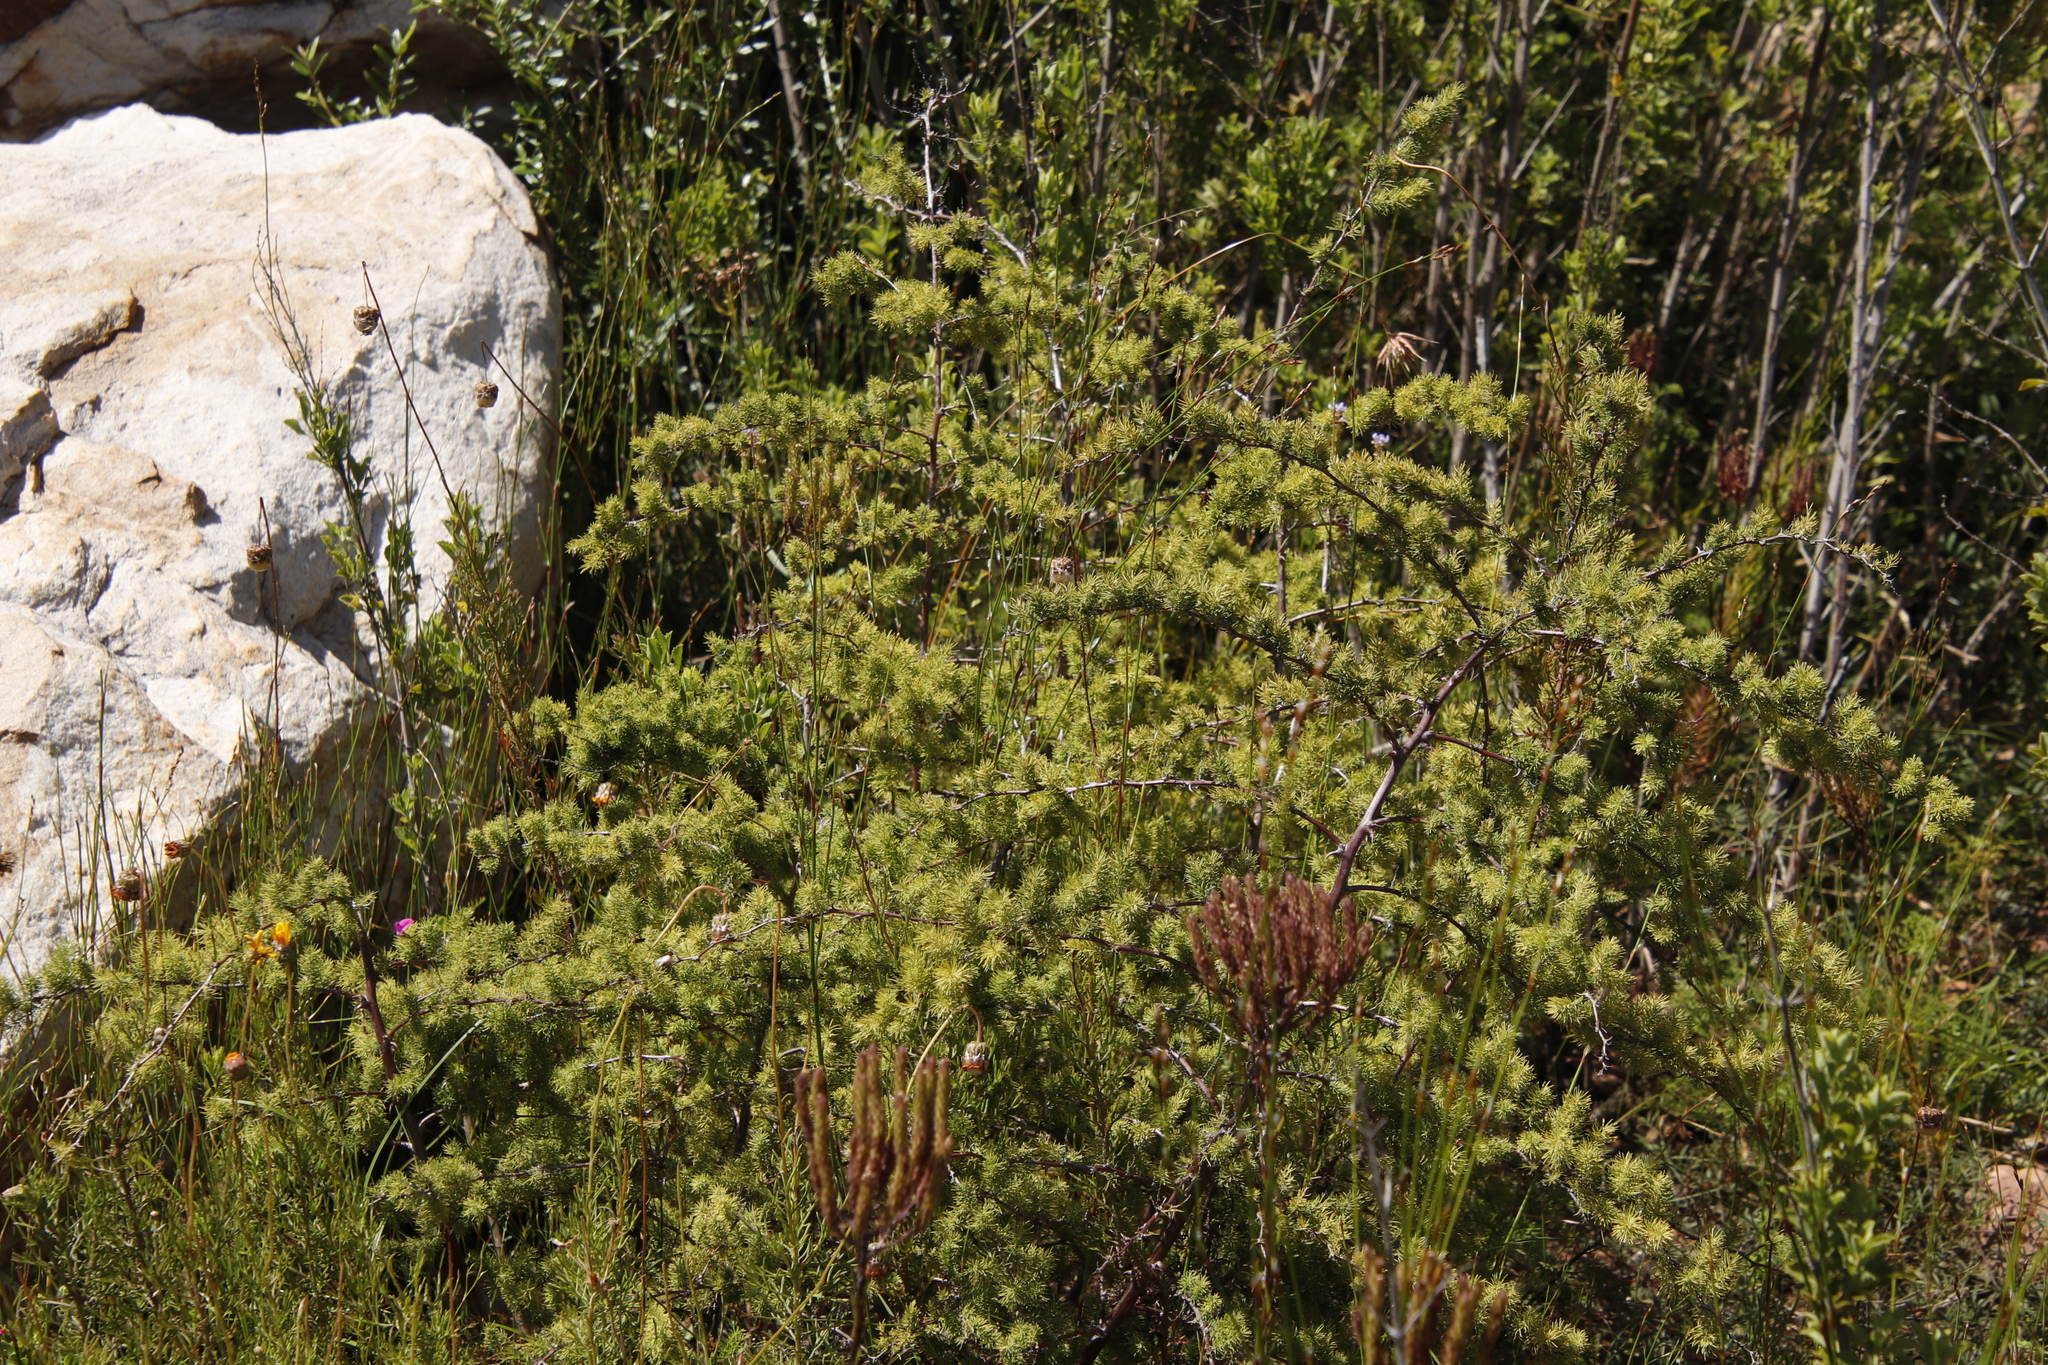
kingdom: Plantae
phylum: Tracheophyta
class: Liliopsida
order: Asparagales
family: Asparagaceae
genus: Asparagus
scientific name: Asparagus rubicundus
